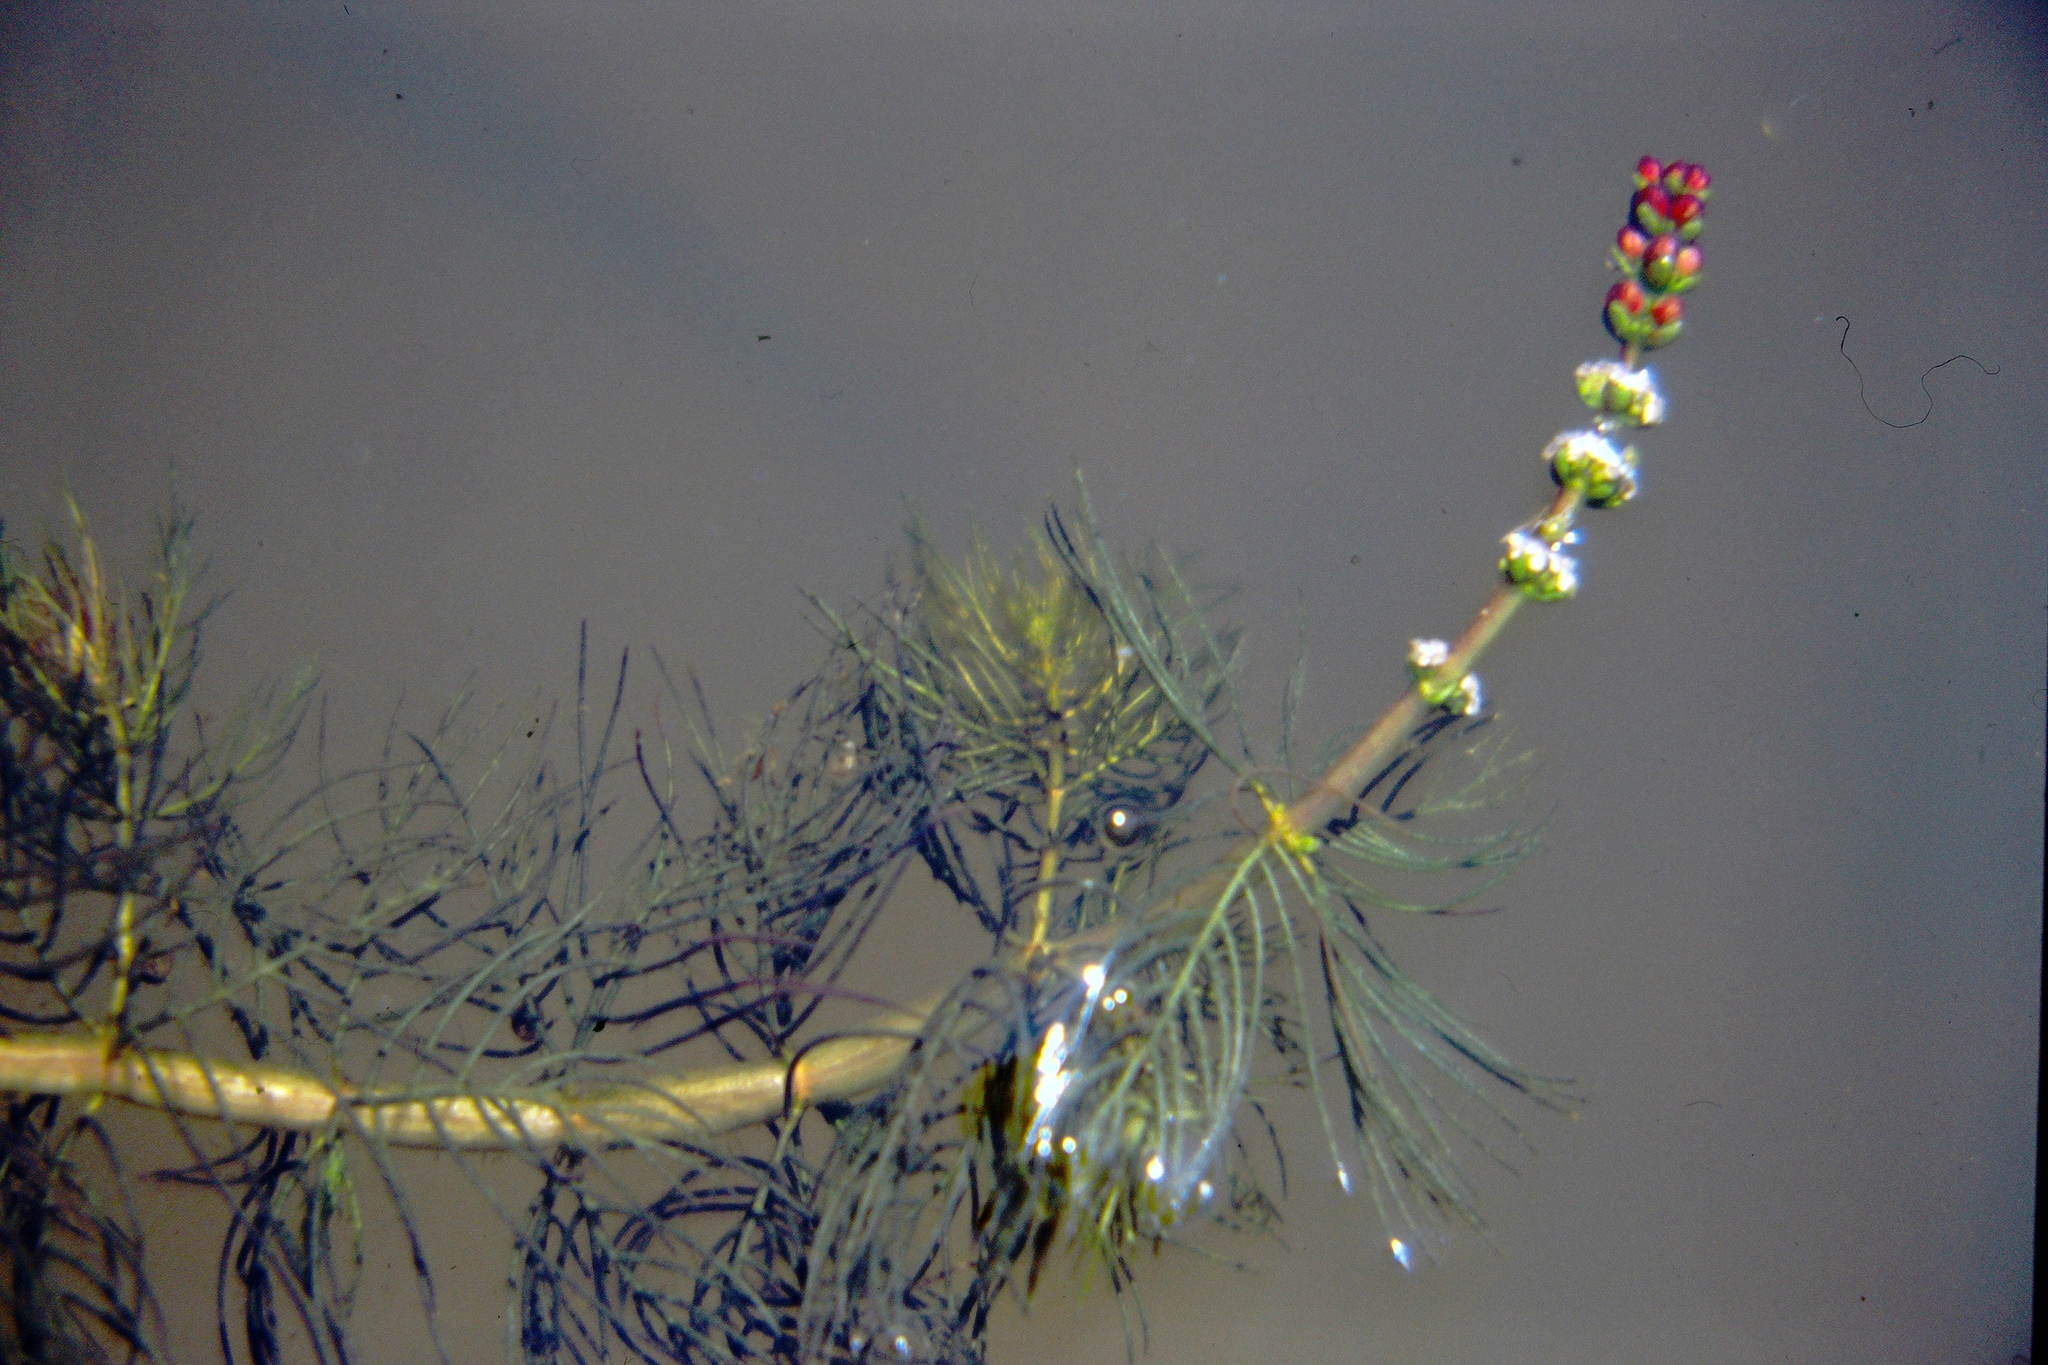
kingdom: Plantae
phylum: Tracheophyta
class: Magnoliopsida
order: Saxifragales
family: Haloragaceae
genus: Myriophyllum
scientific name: Myriophyllum sibiricum
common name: Siberian water-milfoil
